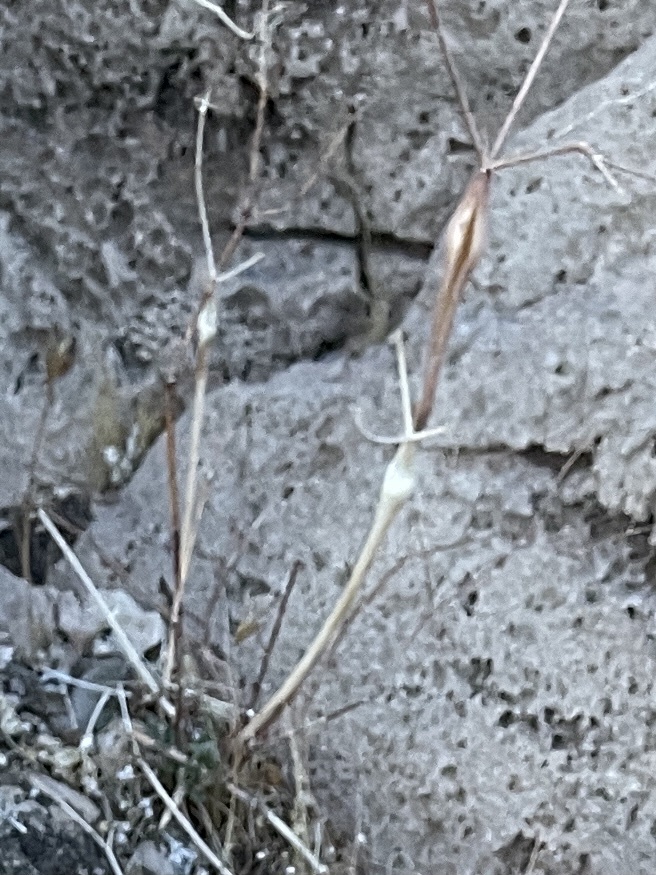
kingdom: Plantae
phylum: Tracheophyta
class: Magnoliopsida
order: Caryophyllales
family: Polygonaceae
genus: Eriogonum
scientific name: Eriogonum inflatum
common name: Desert trumpet
